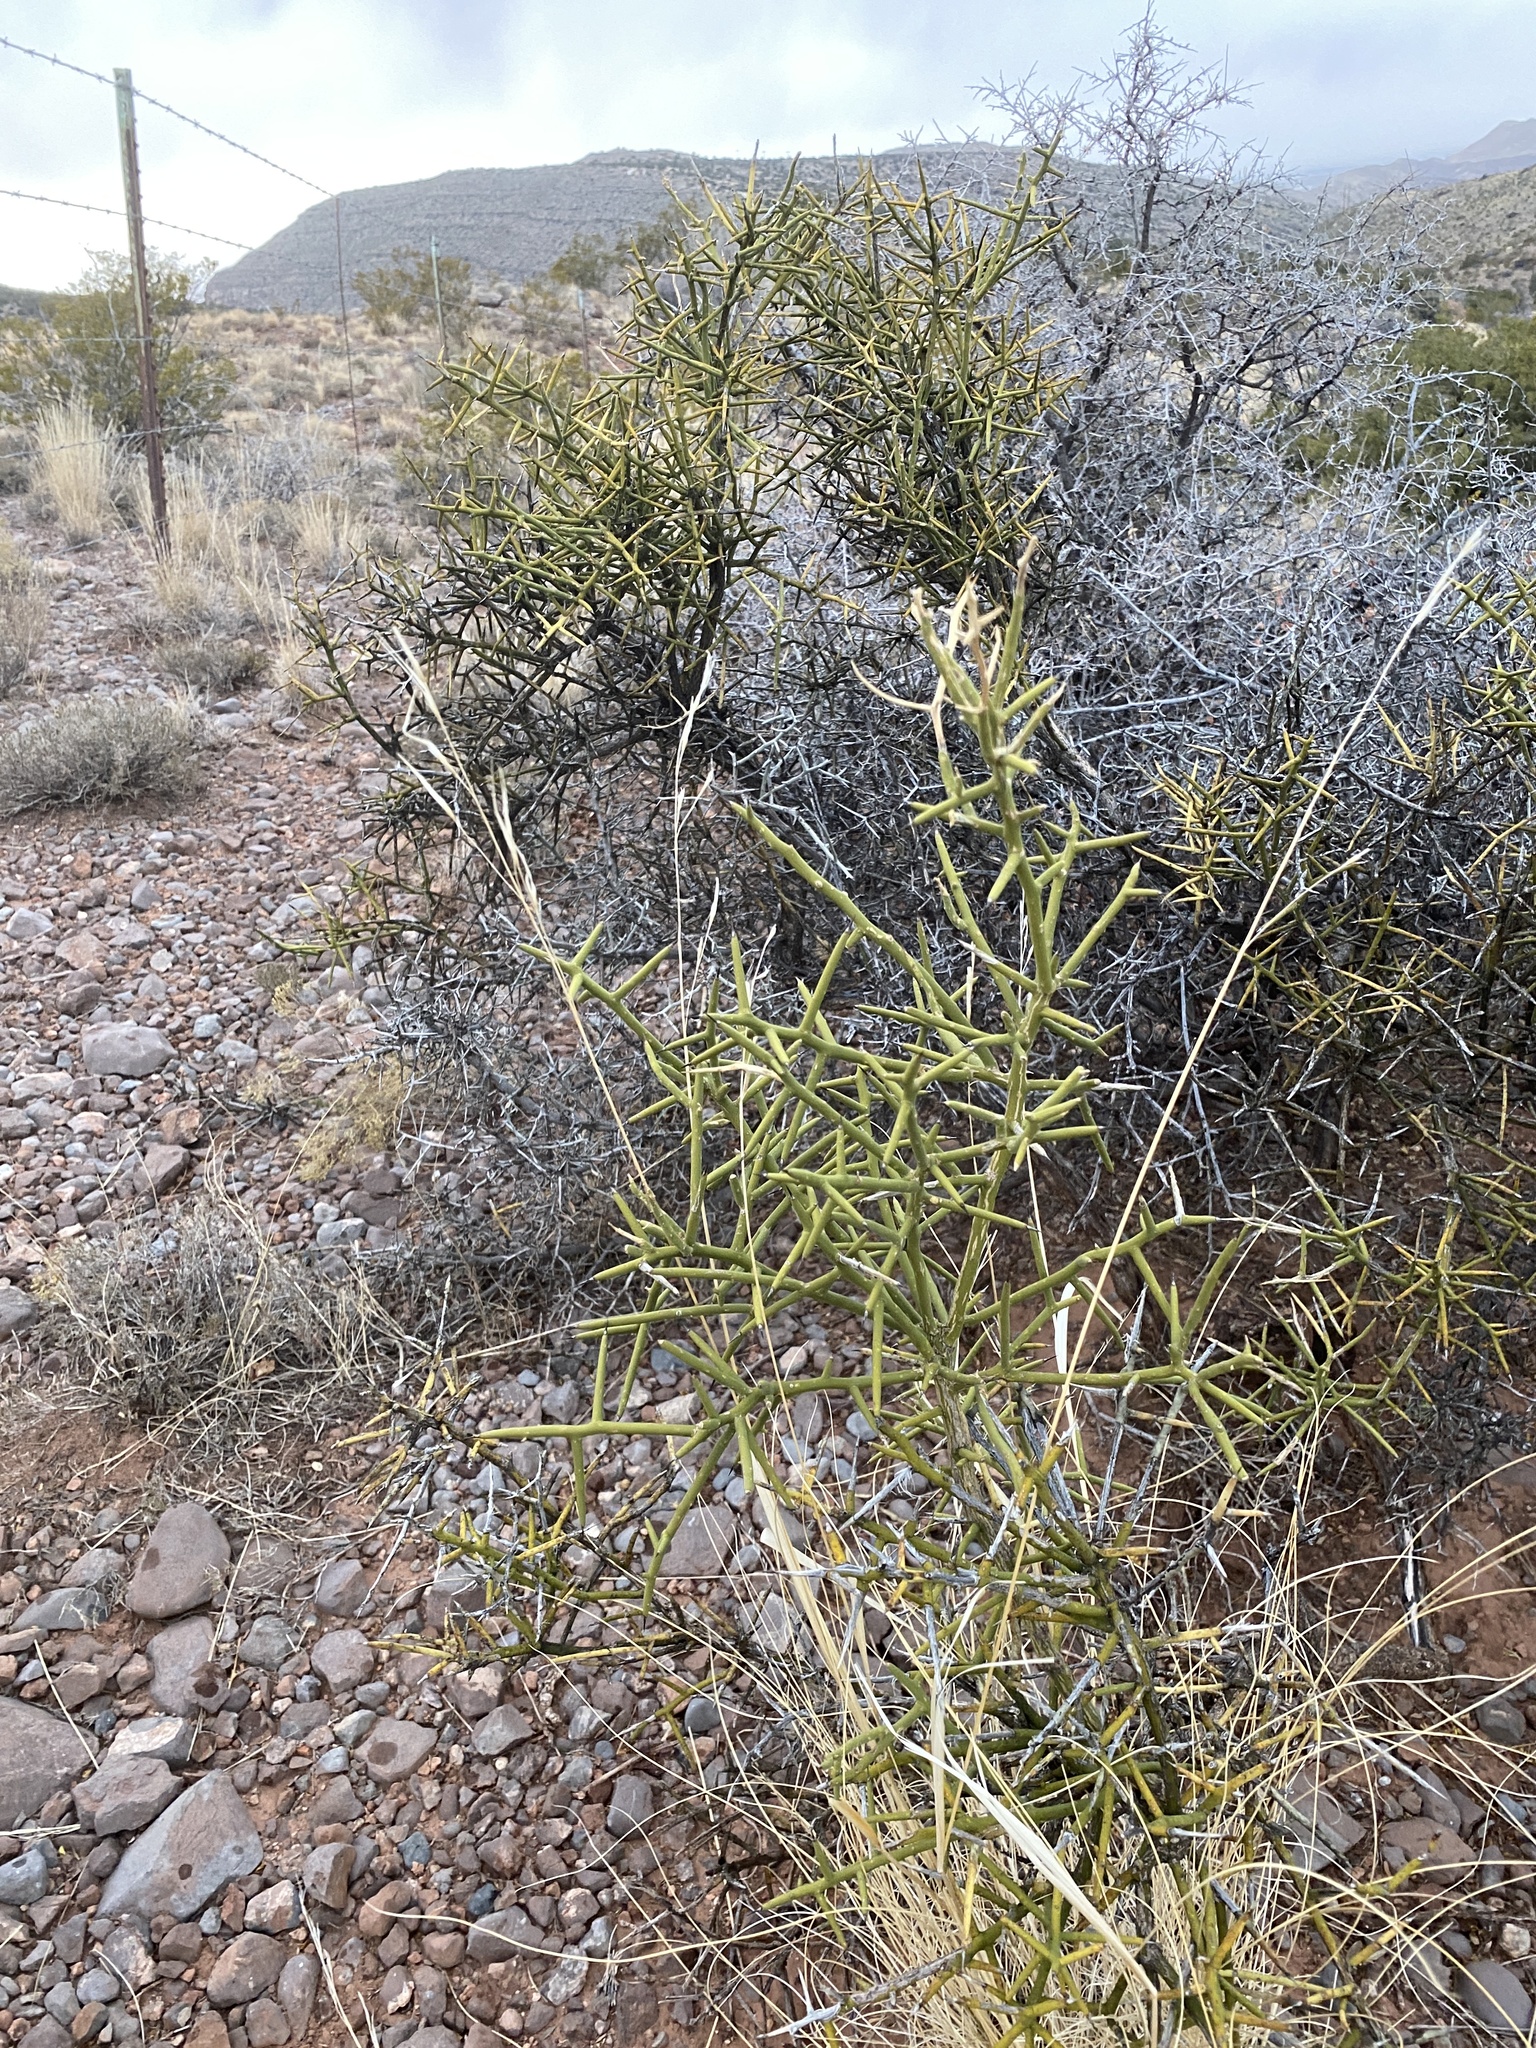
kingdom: Plantae
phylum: Tracheophyta
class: Magnoliopsida
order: Brassicales
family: Koeberliniaceae
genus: Koeberlinia
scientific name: Koeberlinia spinosa
